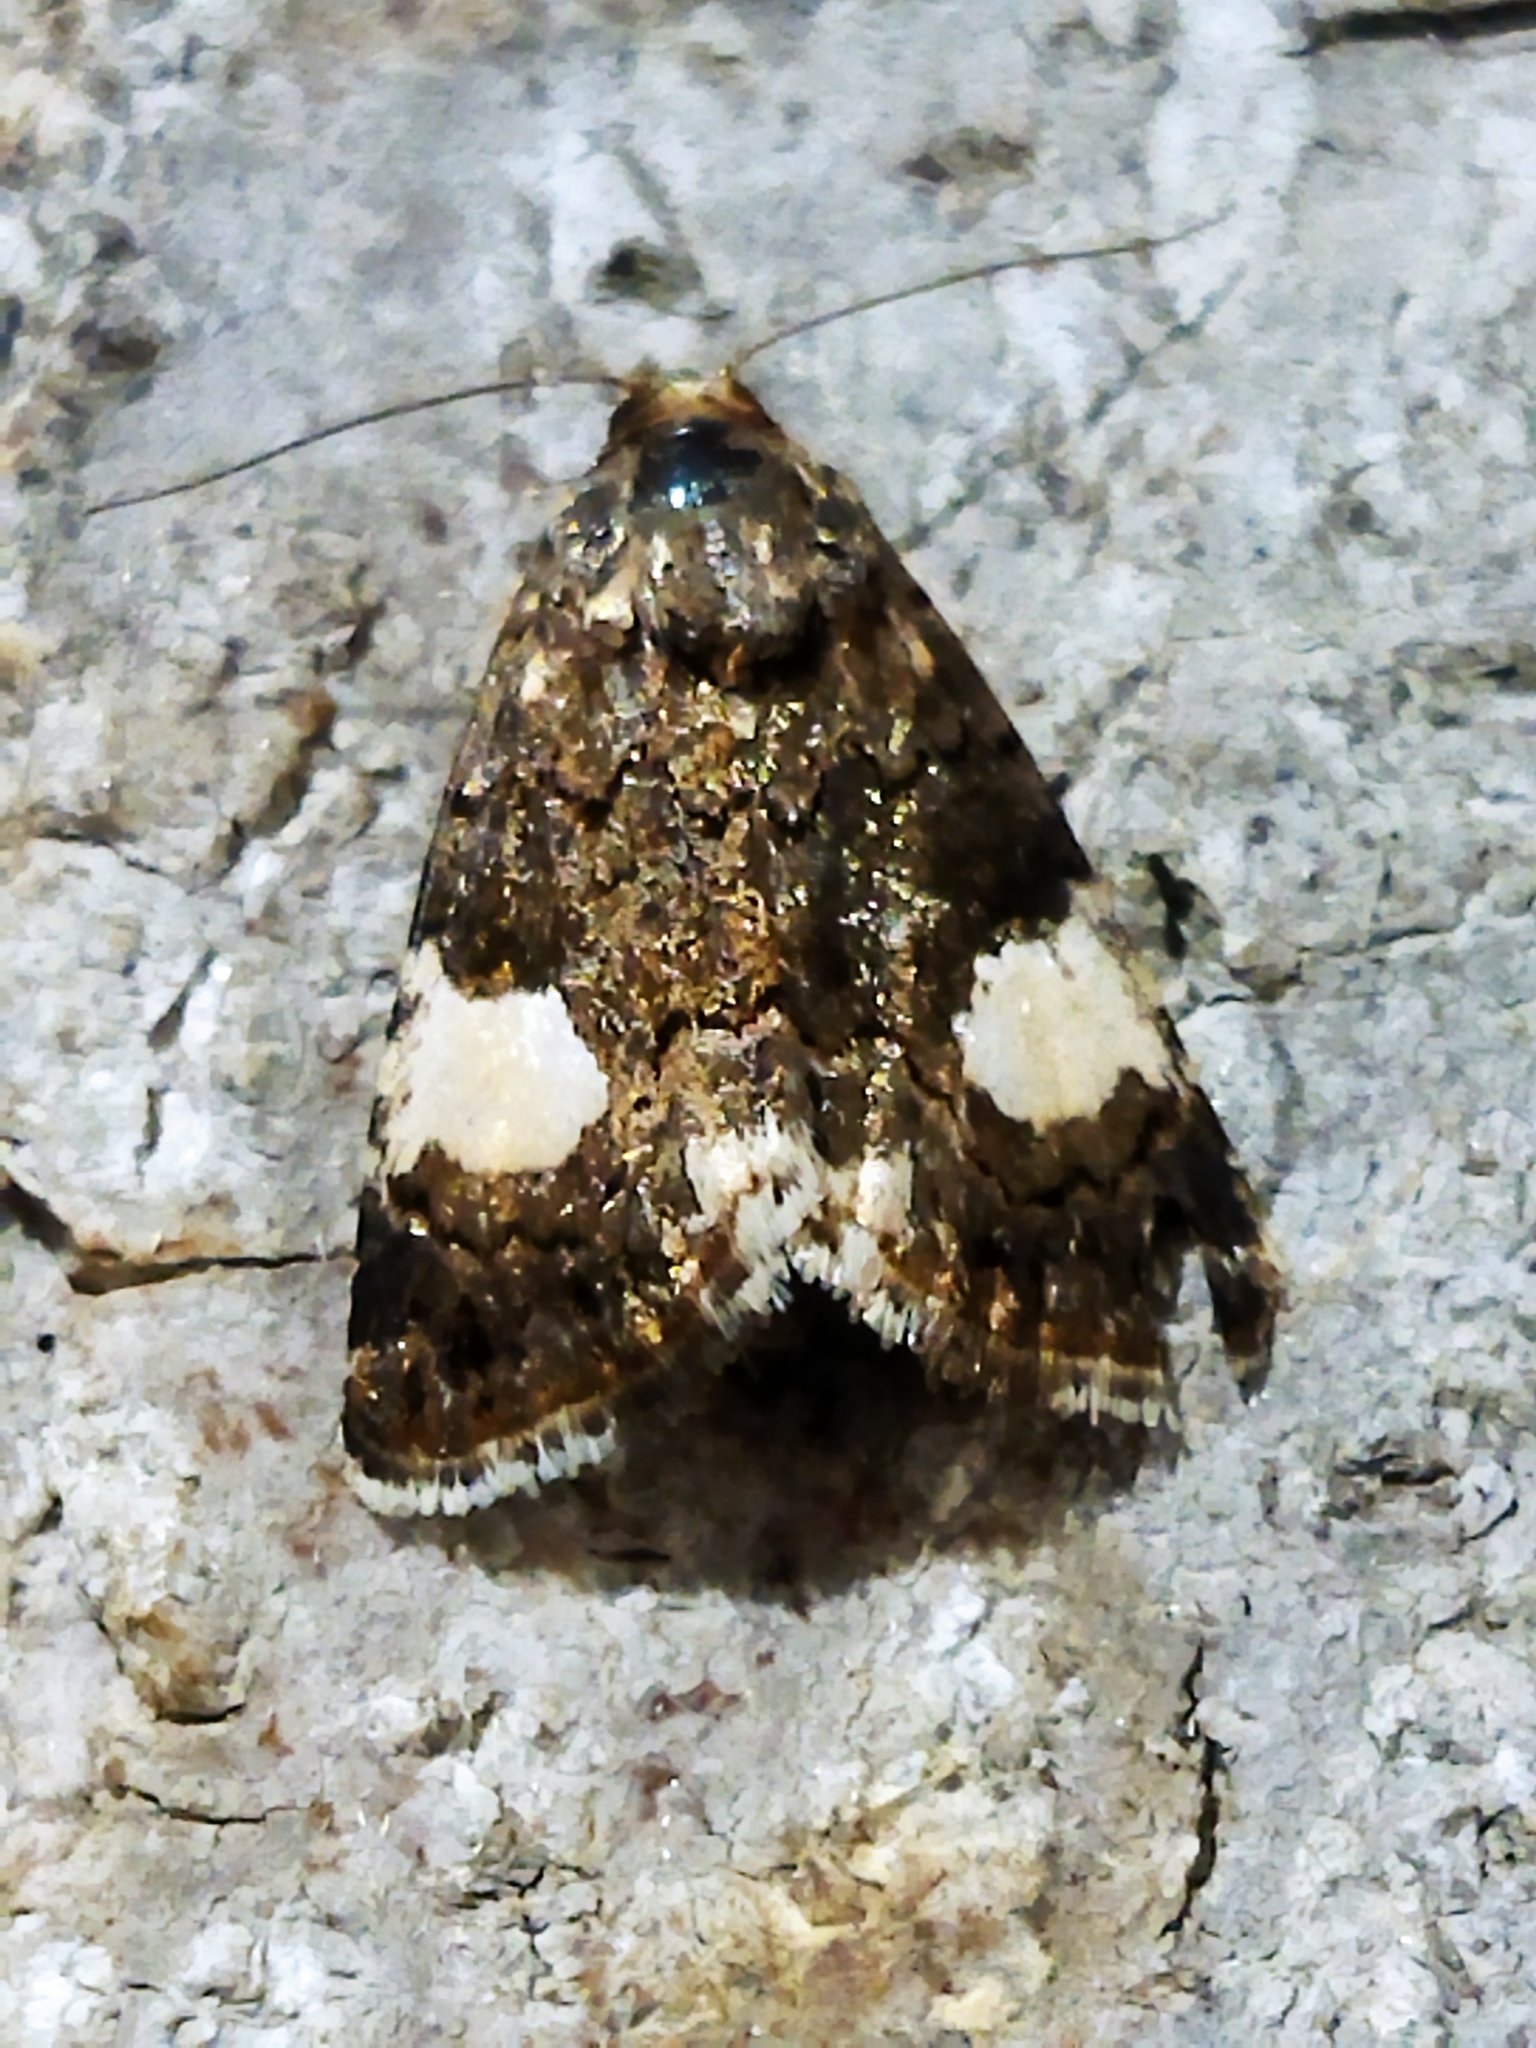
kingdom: Animalia
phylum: Arthropoda
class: Insecta
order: Lepidoptera
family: Erebidae
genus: Tyta
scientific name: Tyta luctuosa
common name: Four-spotted
